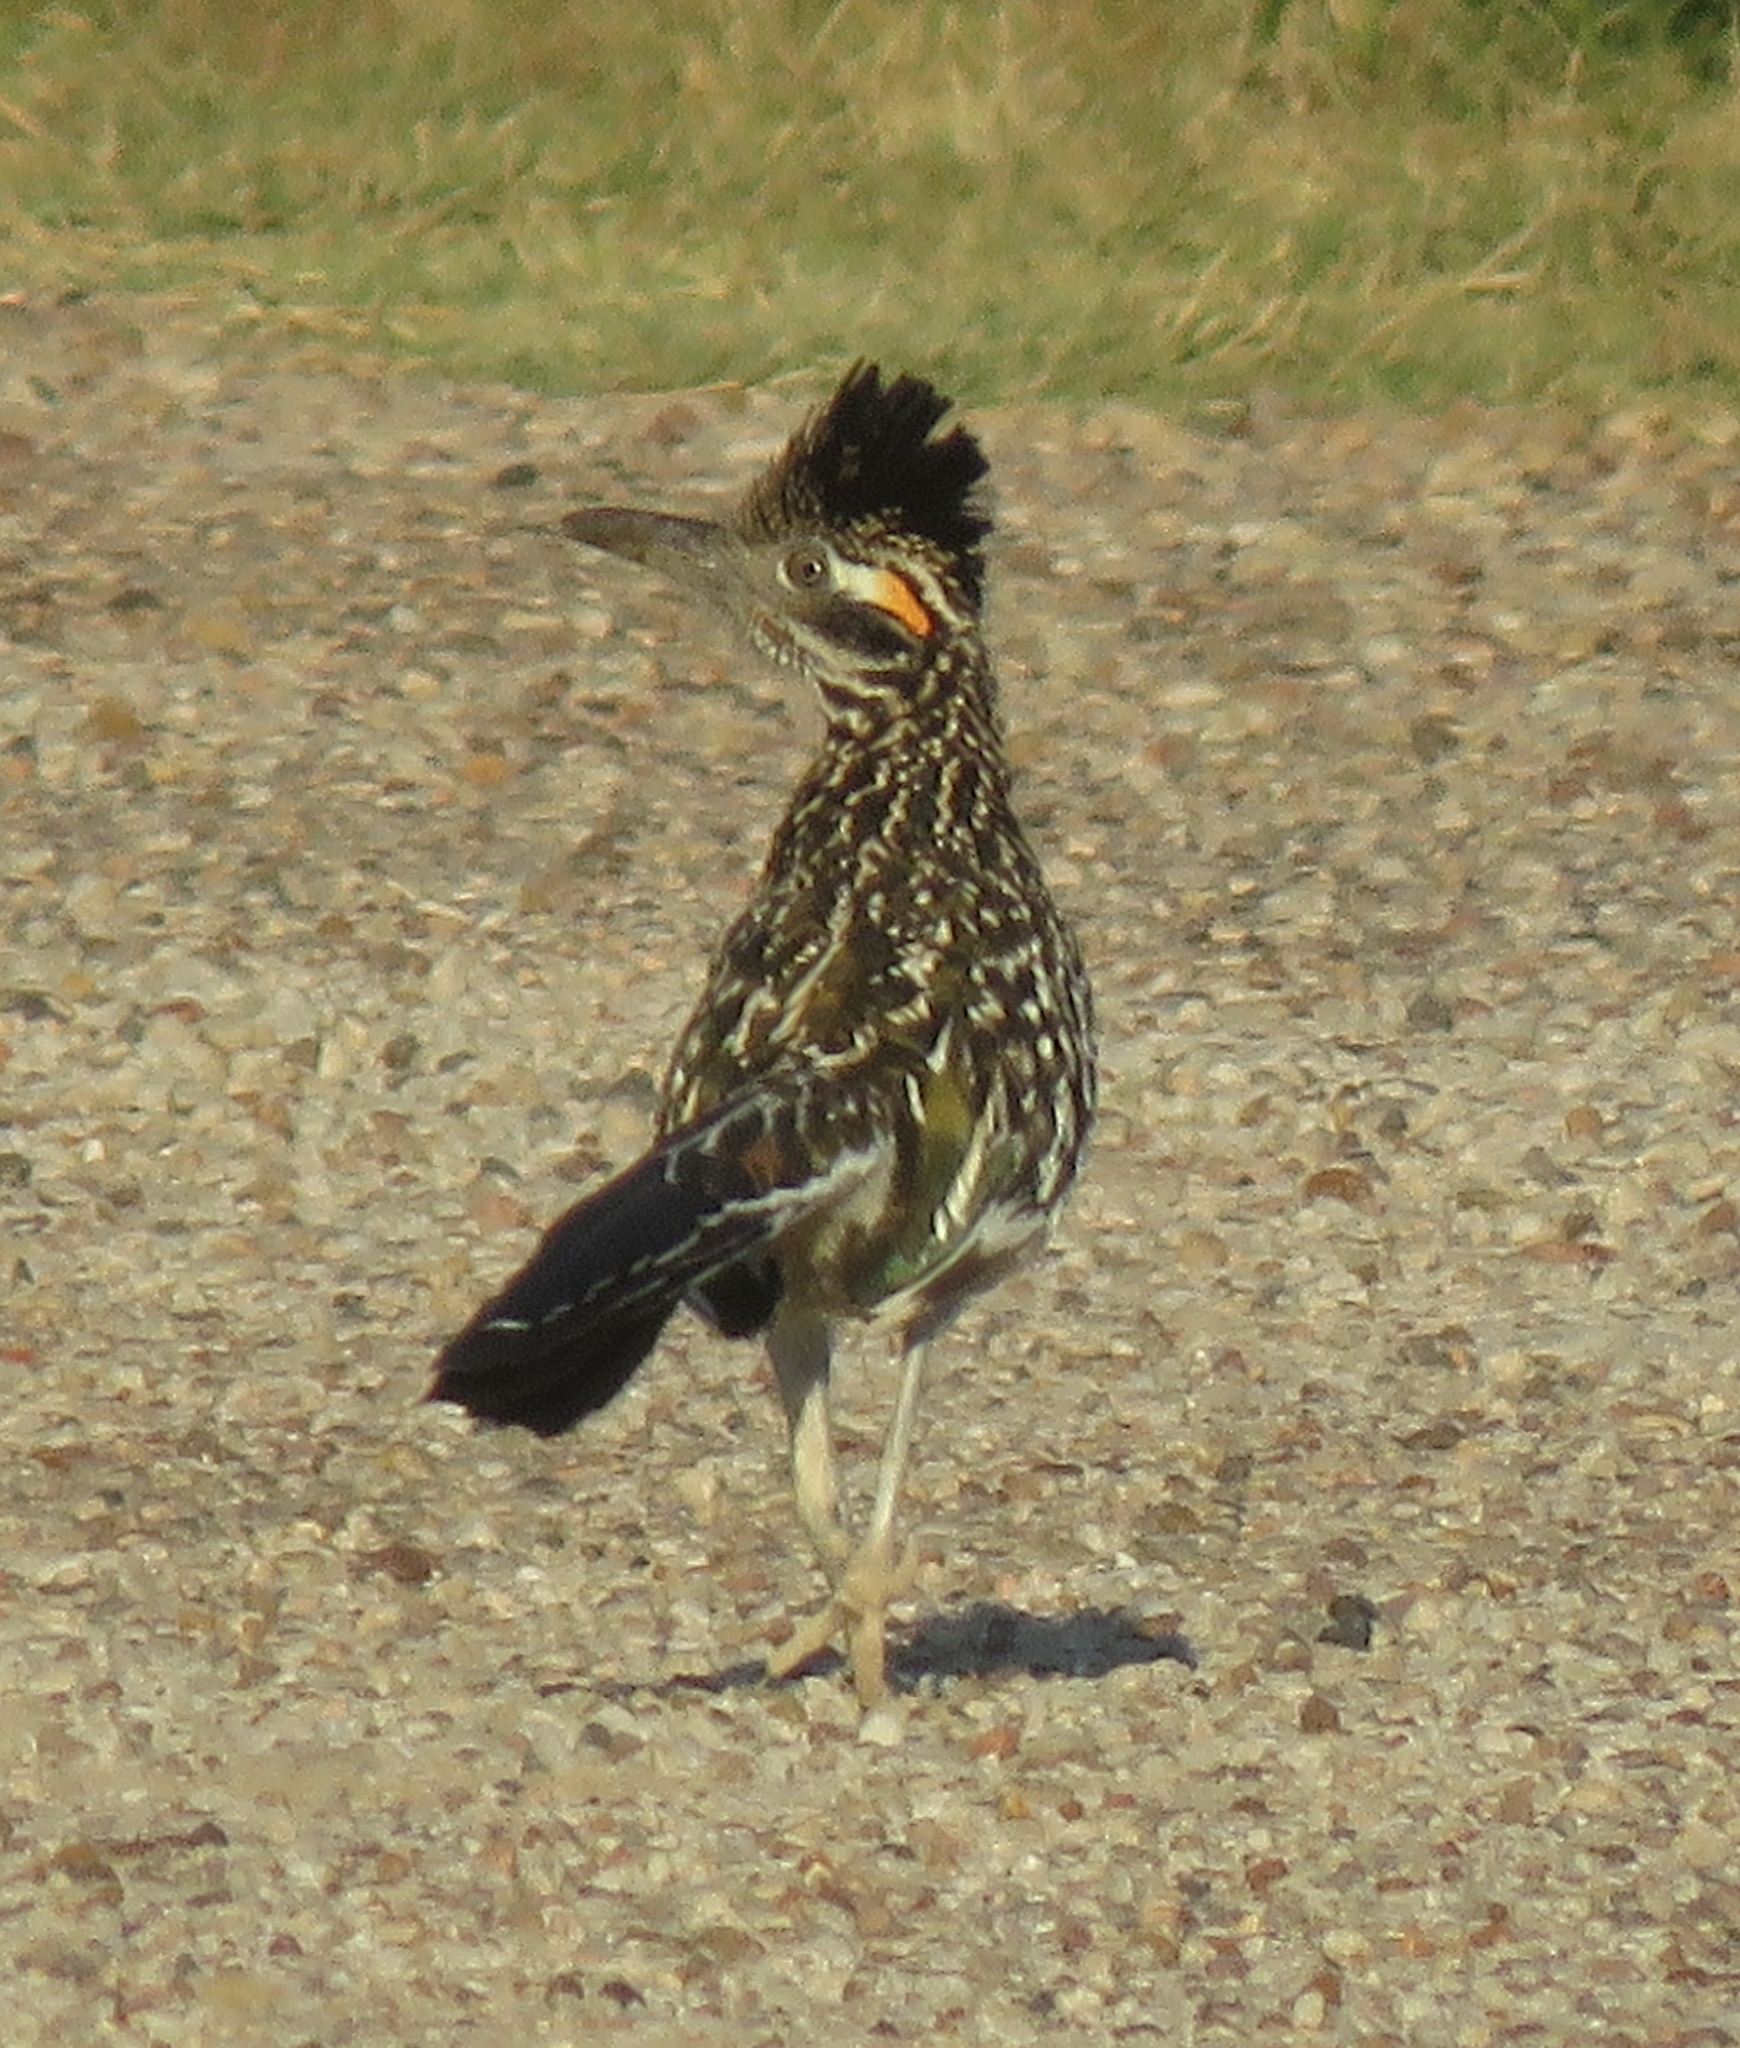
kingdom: Animalia
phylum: Chordata
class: Aves
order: Cuculiformes
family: Cuculidae
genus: Geococcyx
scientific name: Geococcyx californianus
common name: Greater roadrunner
